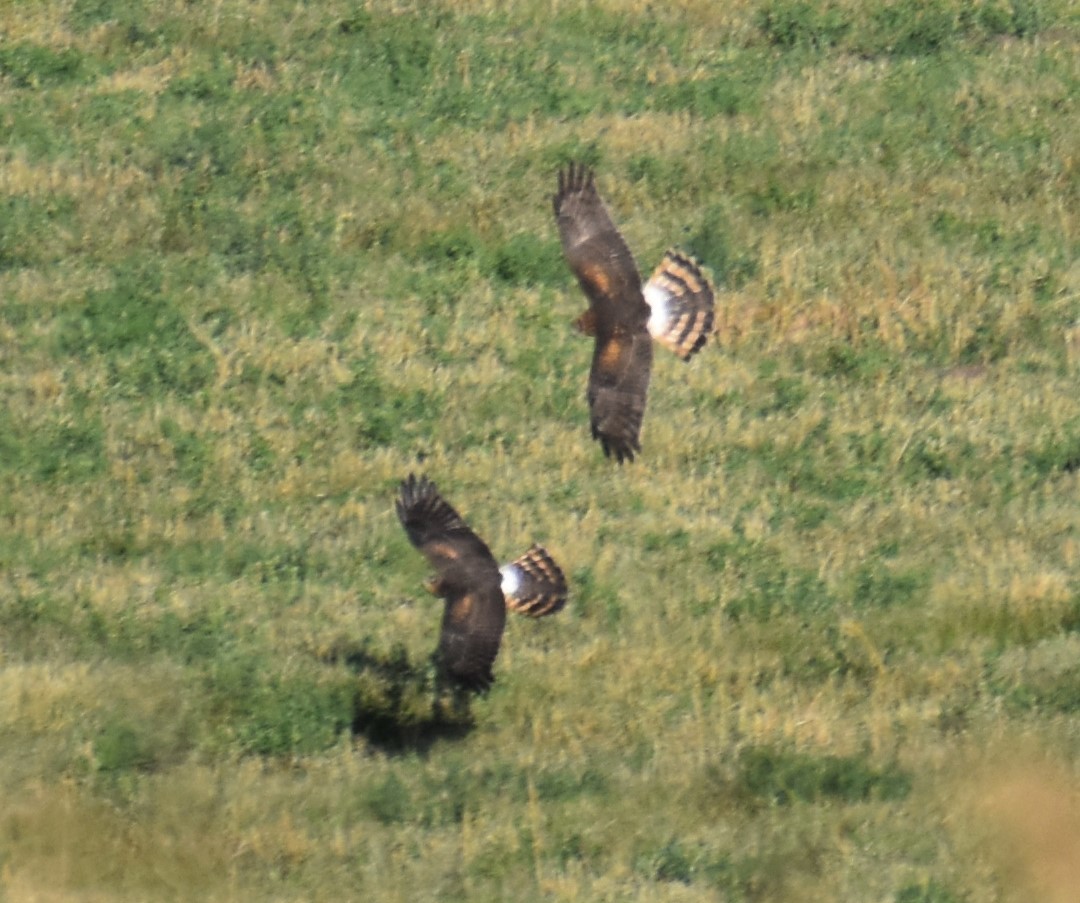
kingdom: Animalia
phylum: Chordata
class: Aves
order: Accipitriformes
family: Accipitridae
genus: Circus
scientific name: Circus cyaneus
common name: Hen harrier
